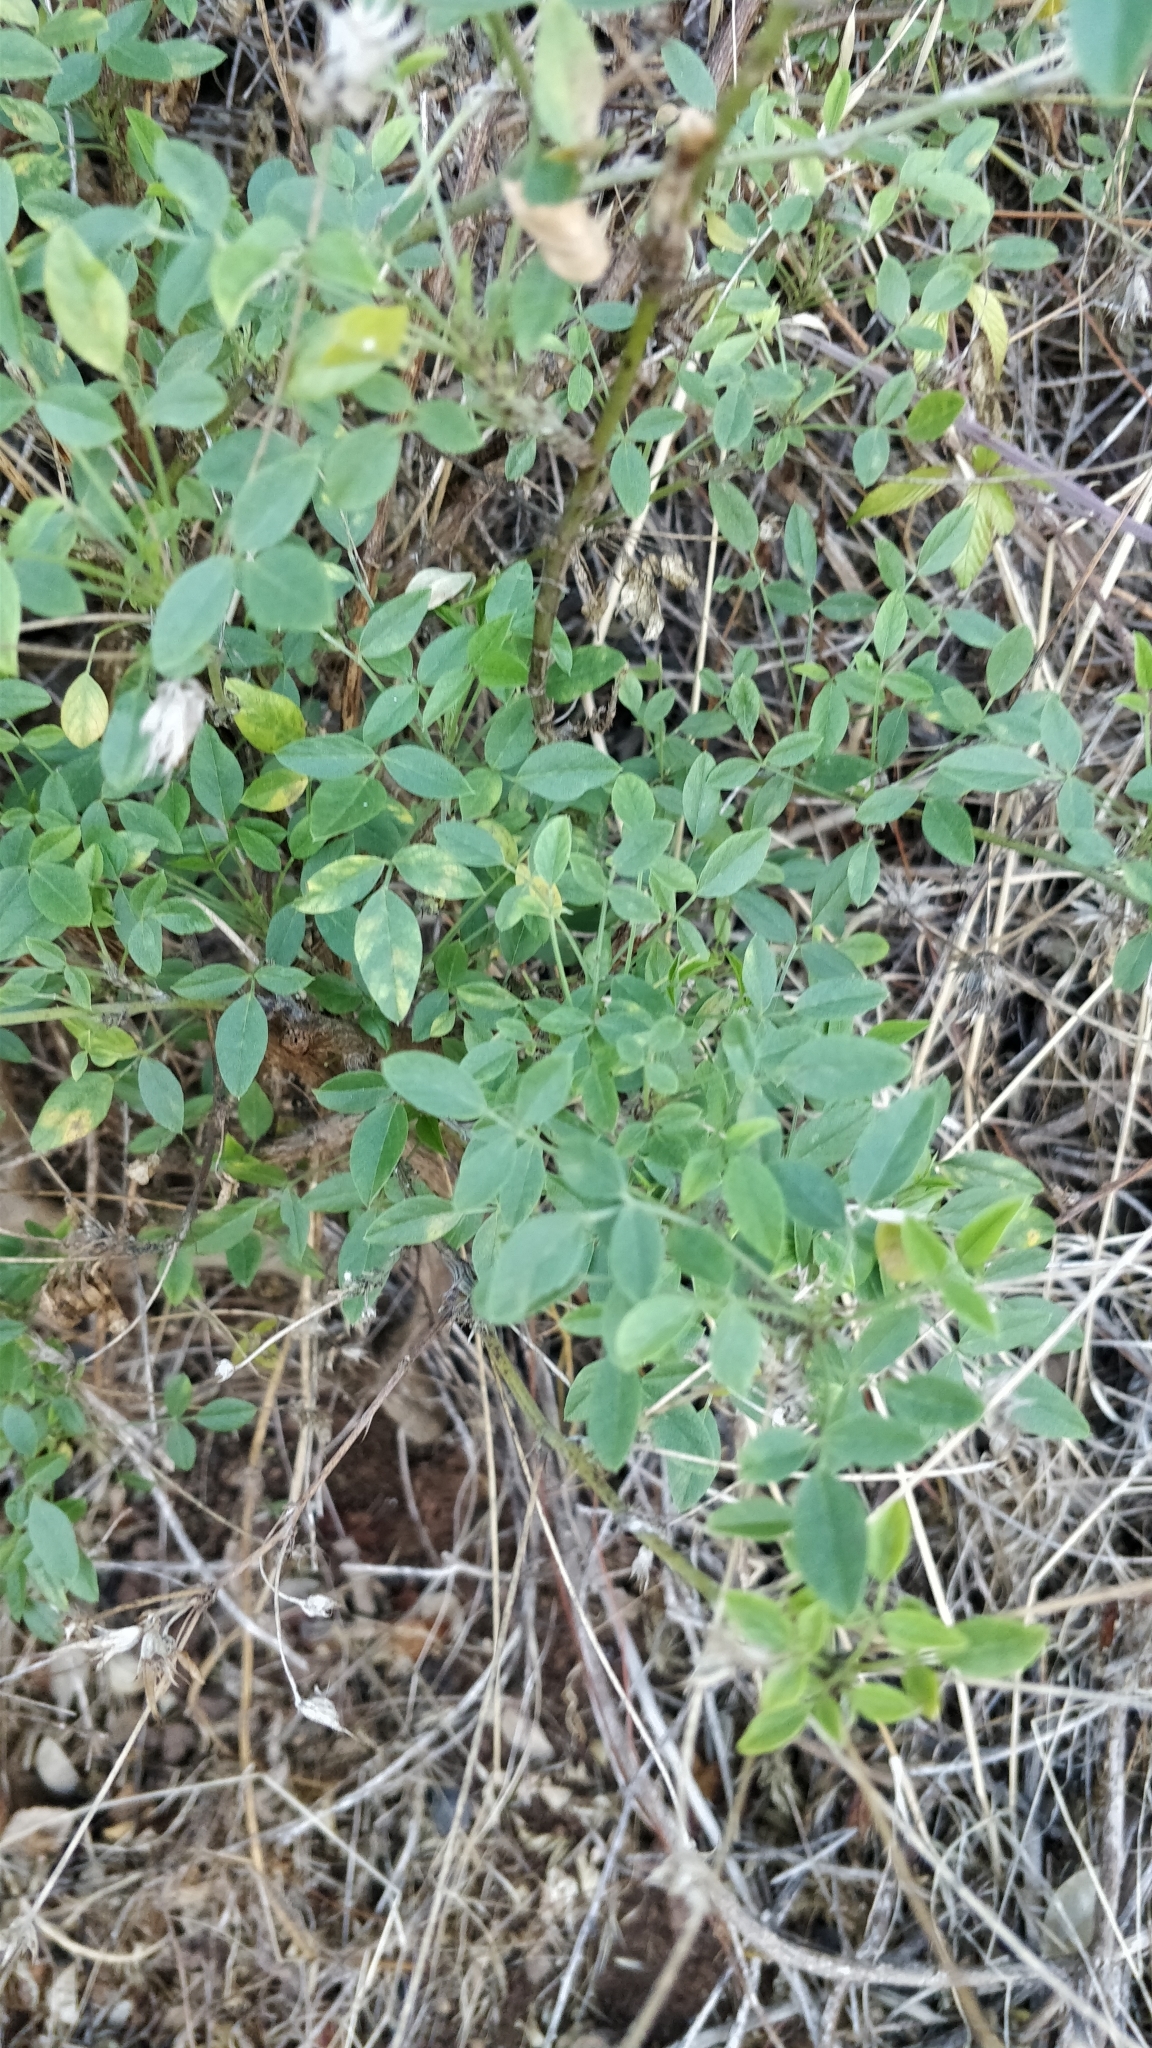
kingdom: Plantae
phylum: Tracheophyta
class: Magnoliopsida
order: Fabales
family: Fabaceae
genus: Bituminaria
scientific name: Bituminaria bituminosa
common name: Arabian pea
